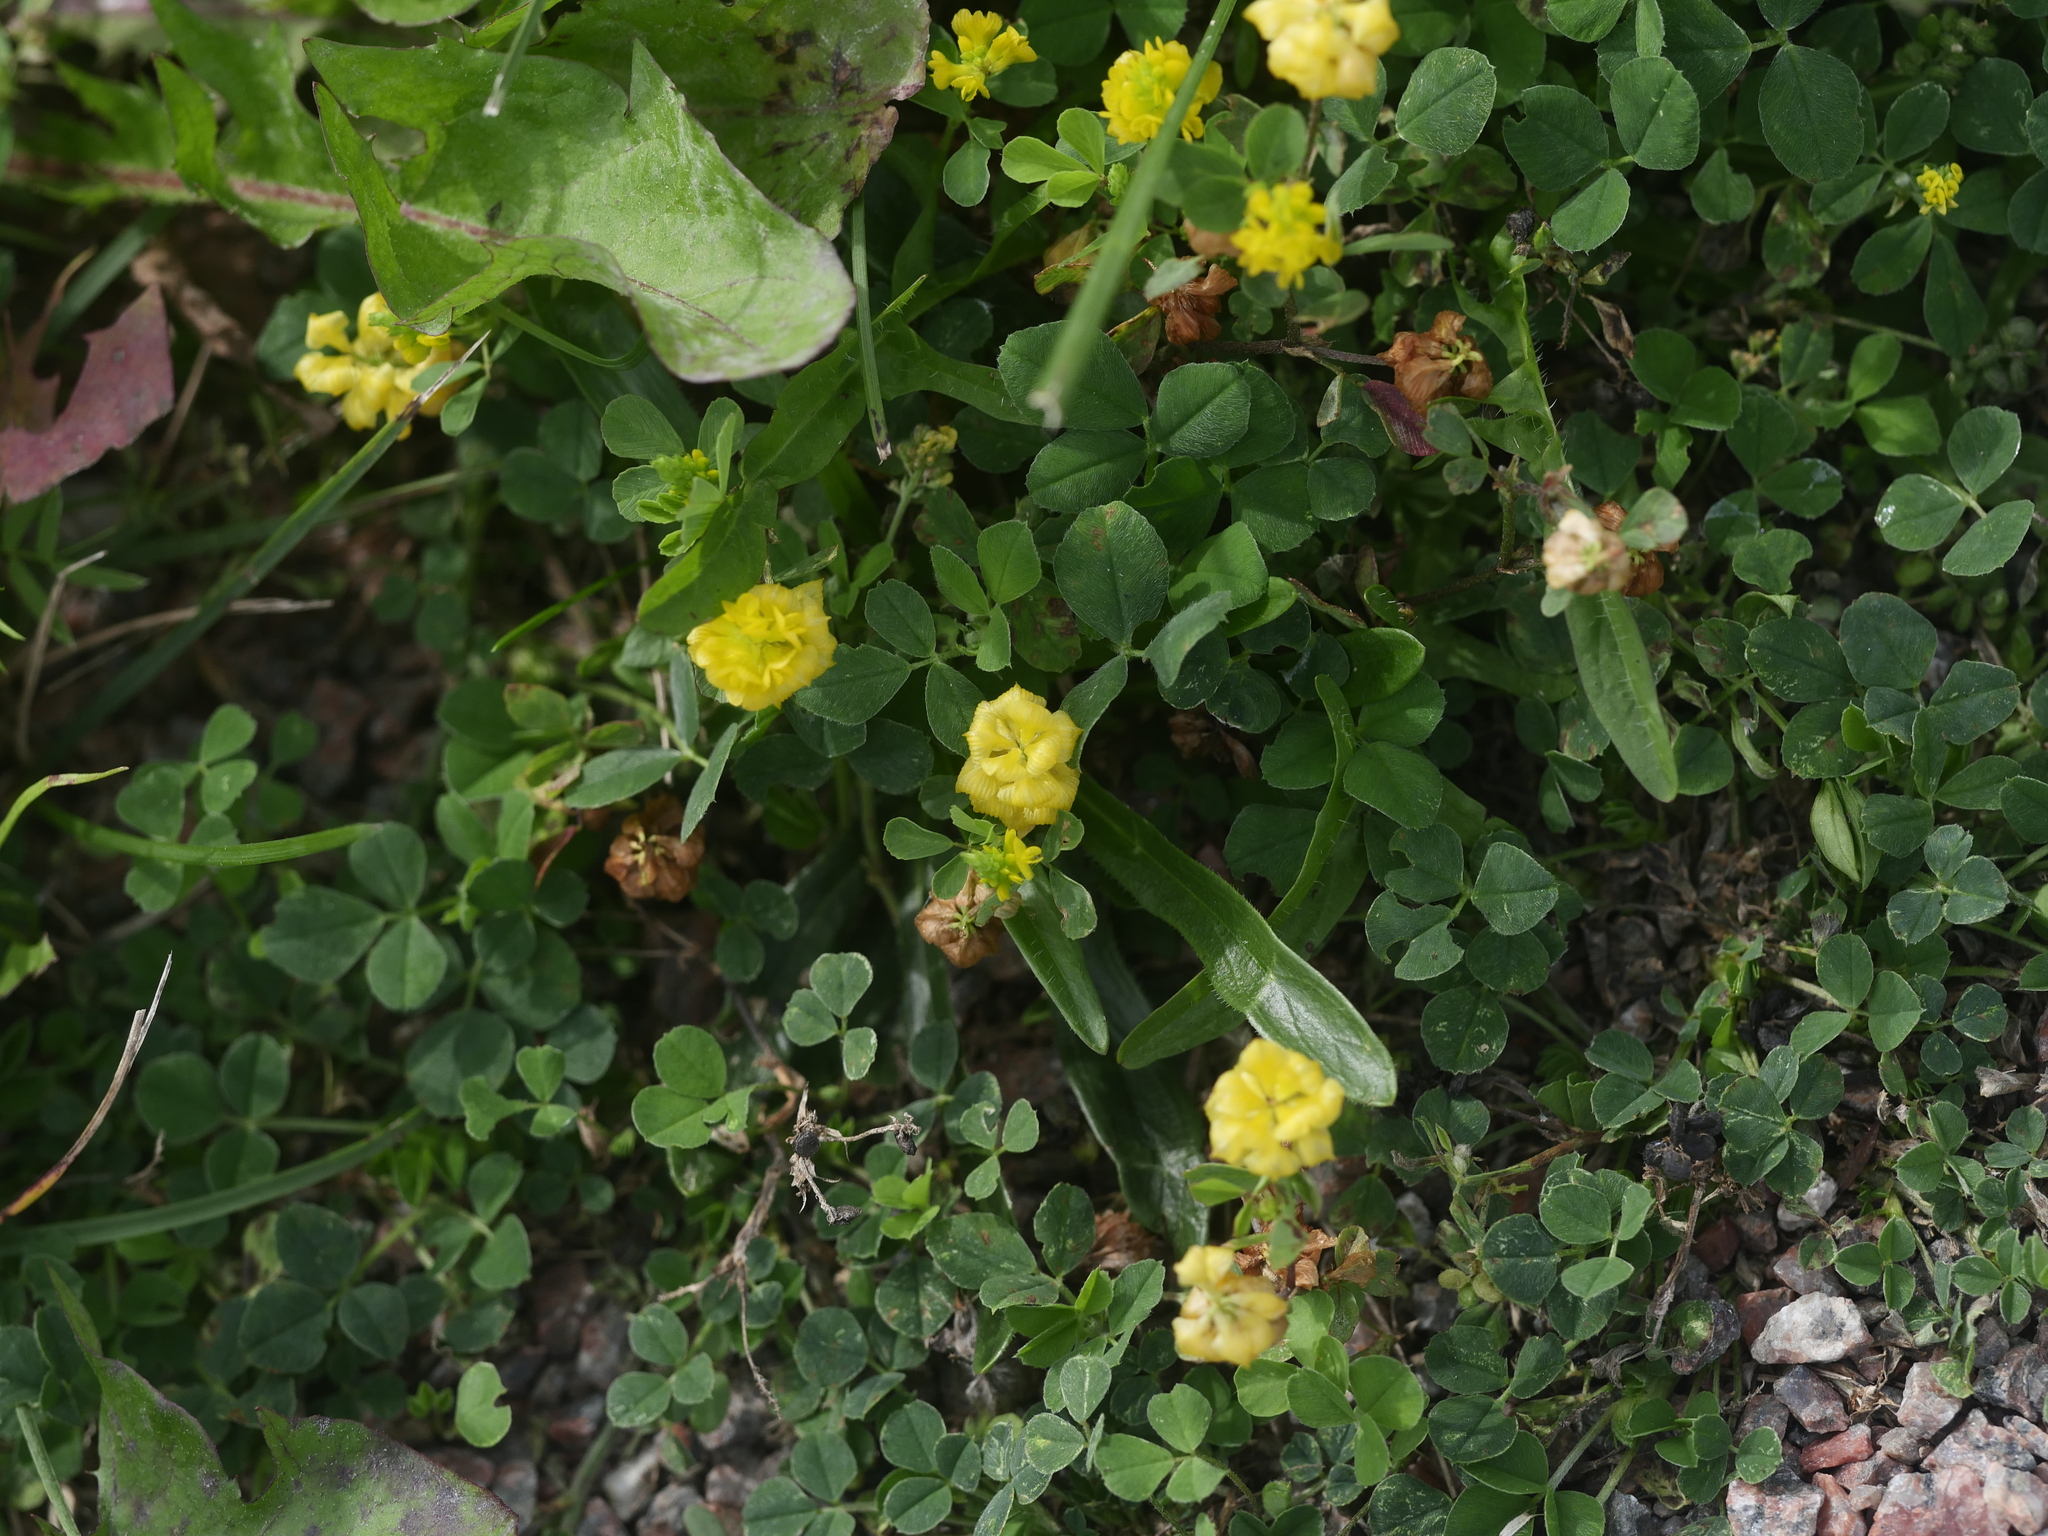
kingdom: Plantae
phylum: Tracheophyta
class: Magnoliopsida
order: Fabales
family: Fabaceae
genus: Trifolium
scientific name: Trifolium campestre
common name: Field clover
